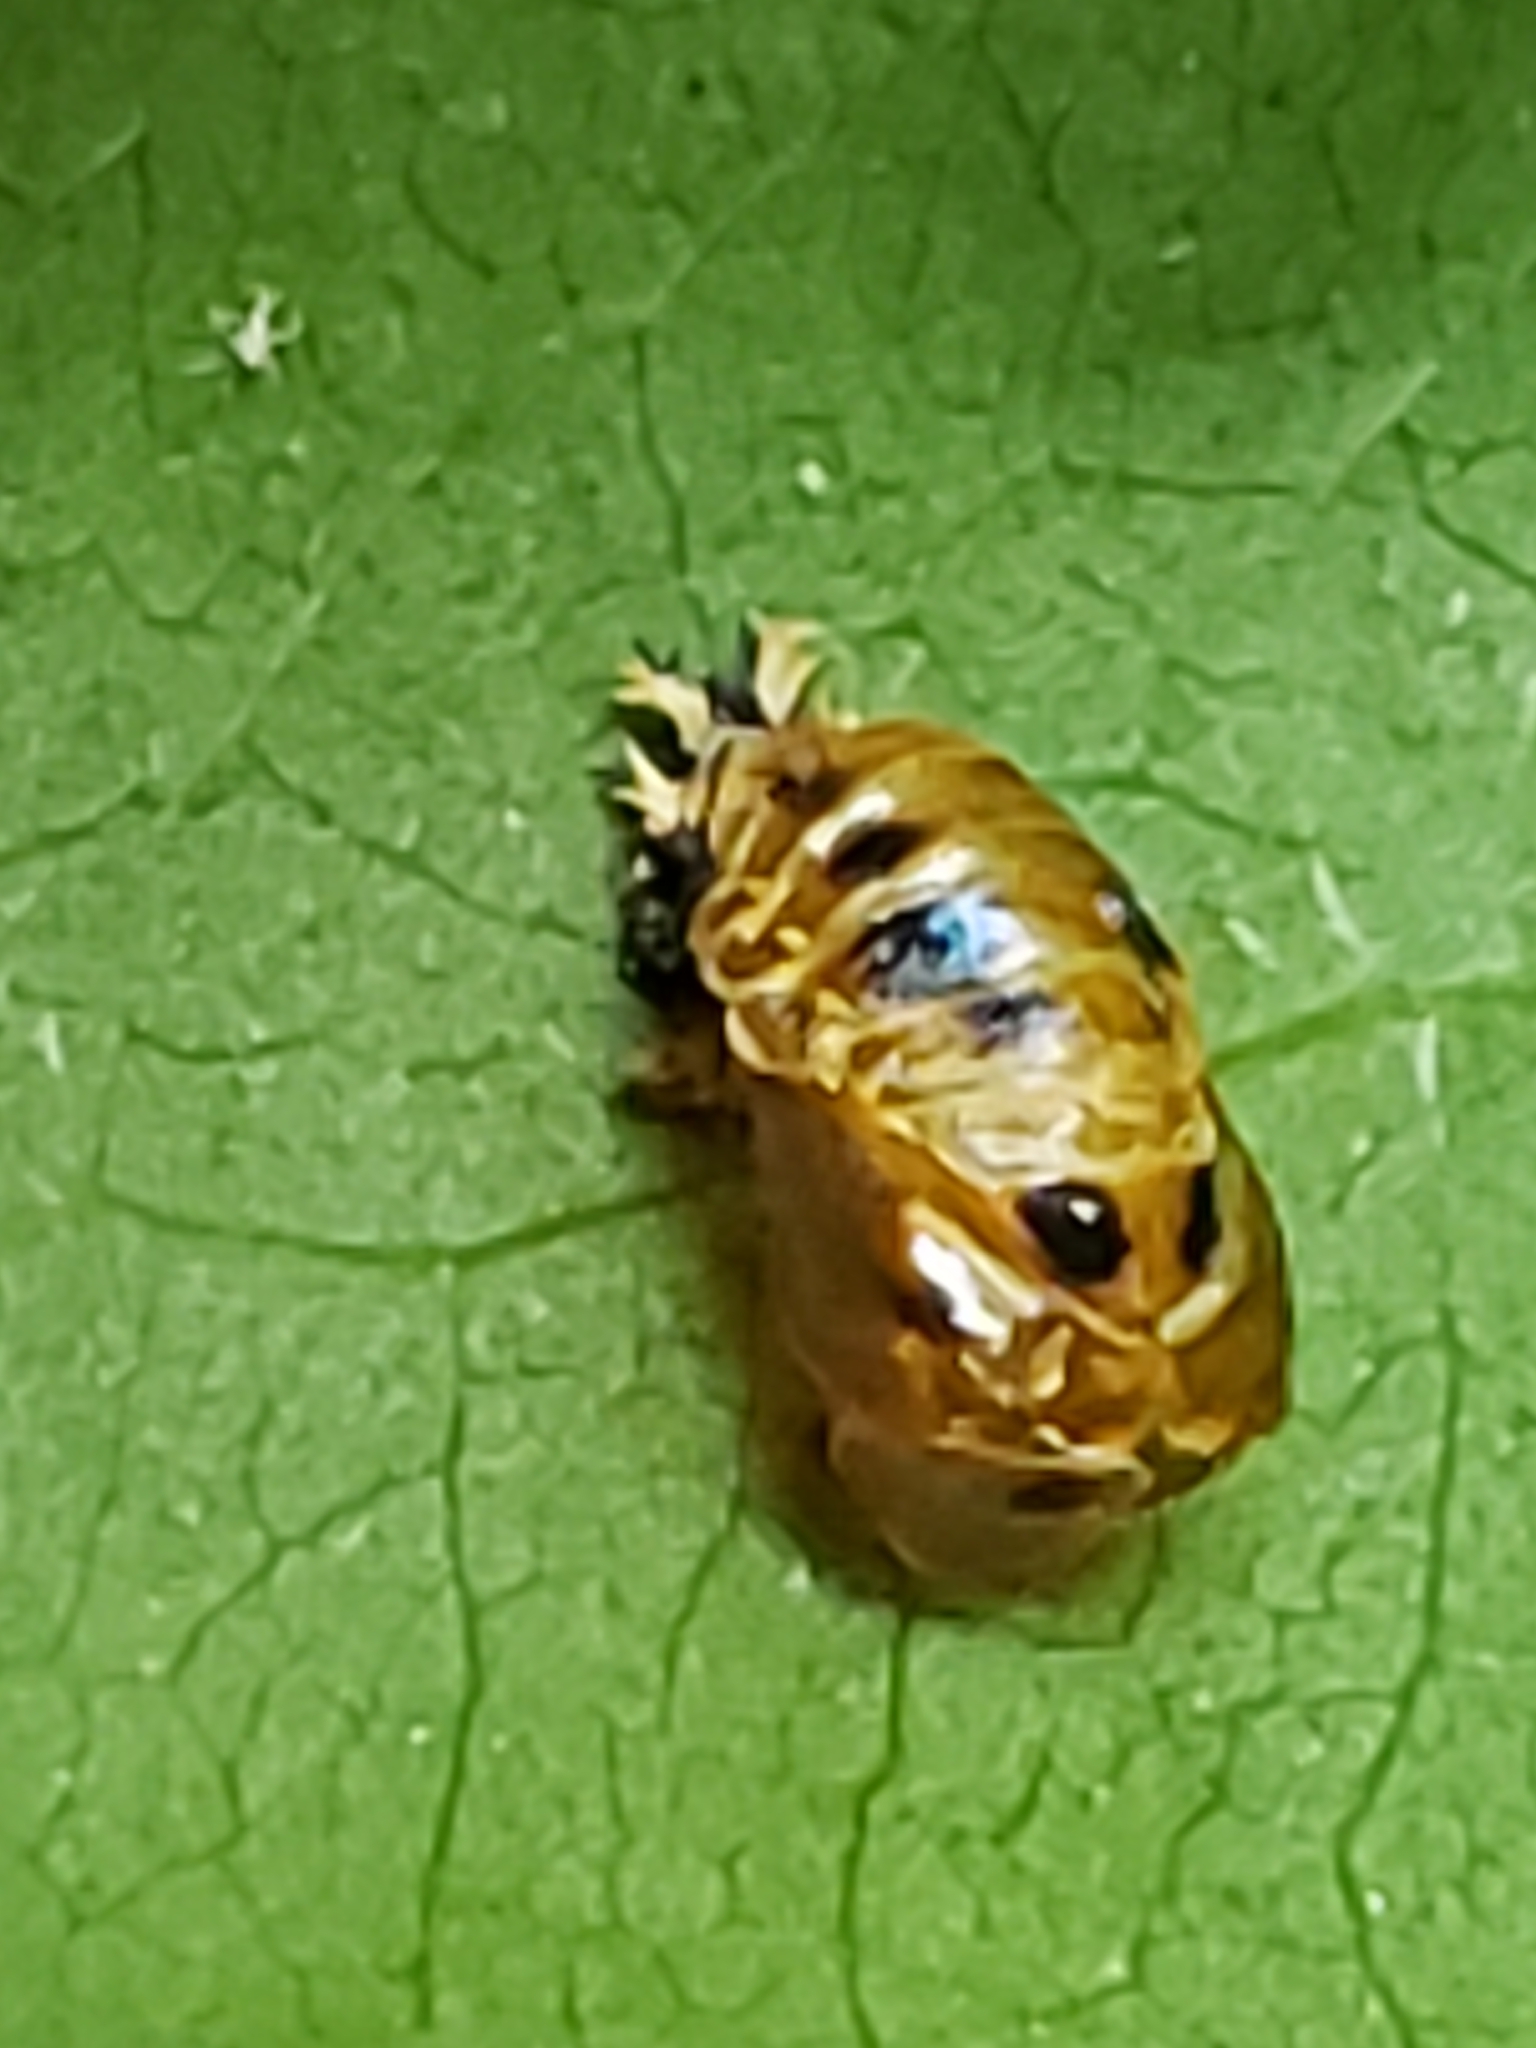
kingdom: Animalia
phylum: Arthropoda
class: Insecta
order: Coleoptera
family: Coccinellidae
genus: Harmonia
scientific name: Harmonia axyridis
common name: Harlequin ladybird
